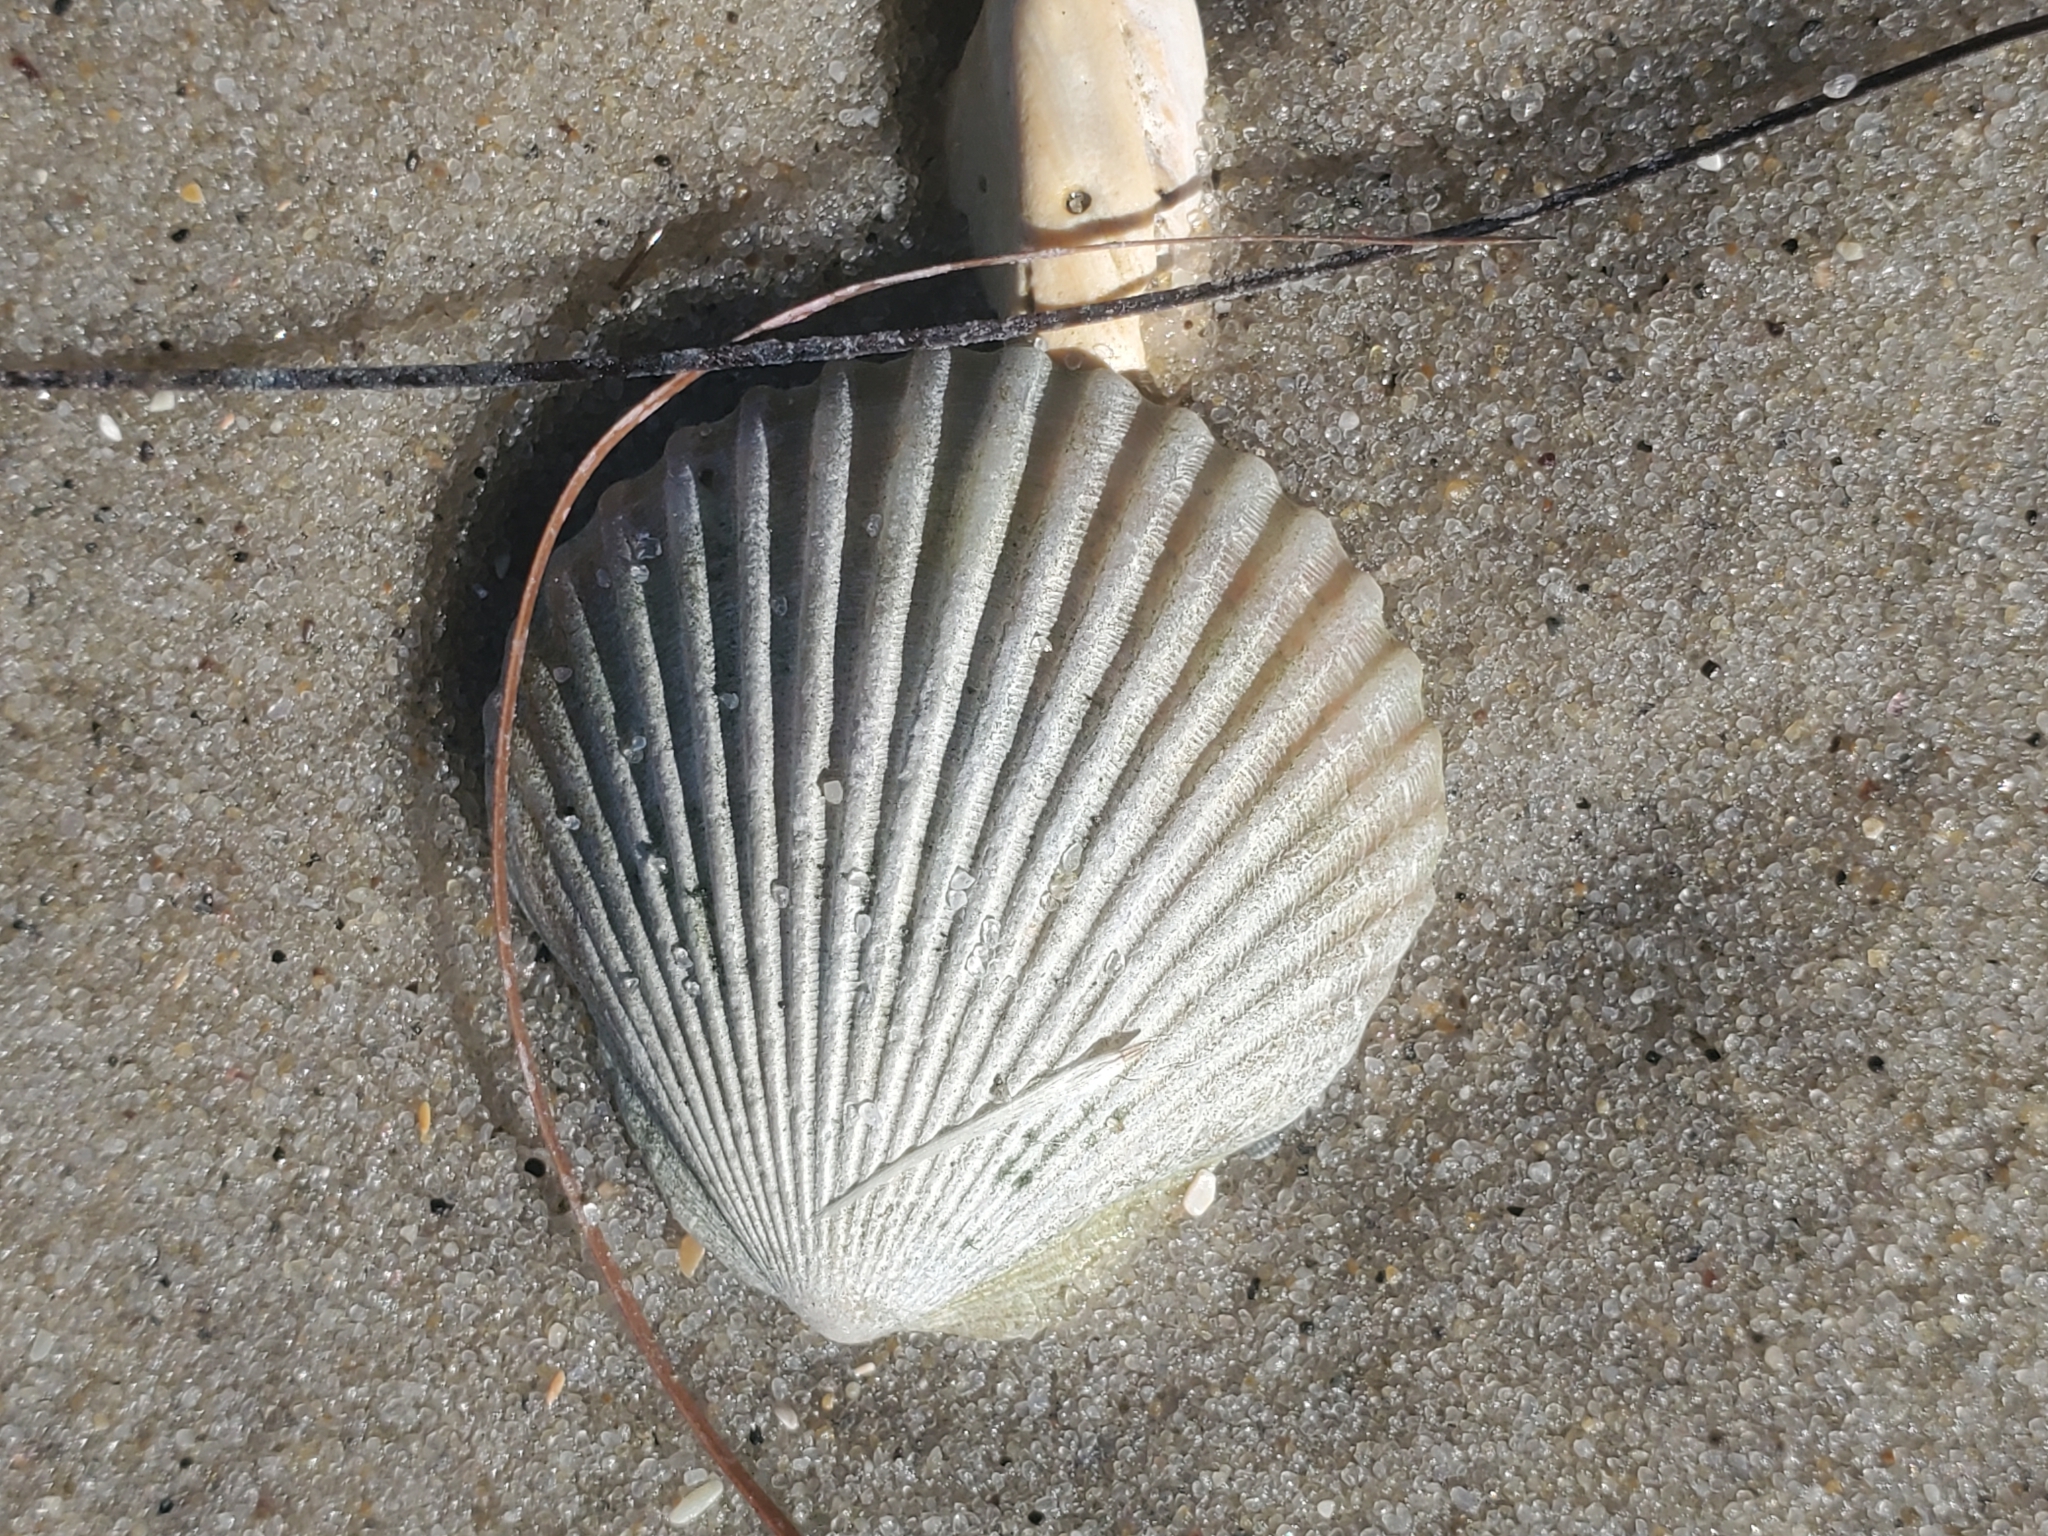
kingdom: Animalia
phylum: Mollusca
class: Bivalvia
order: Pectinida
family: Pectinidae
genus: Argopecten
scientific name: Argopecten irradians
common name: Atlantic bay scallop
